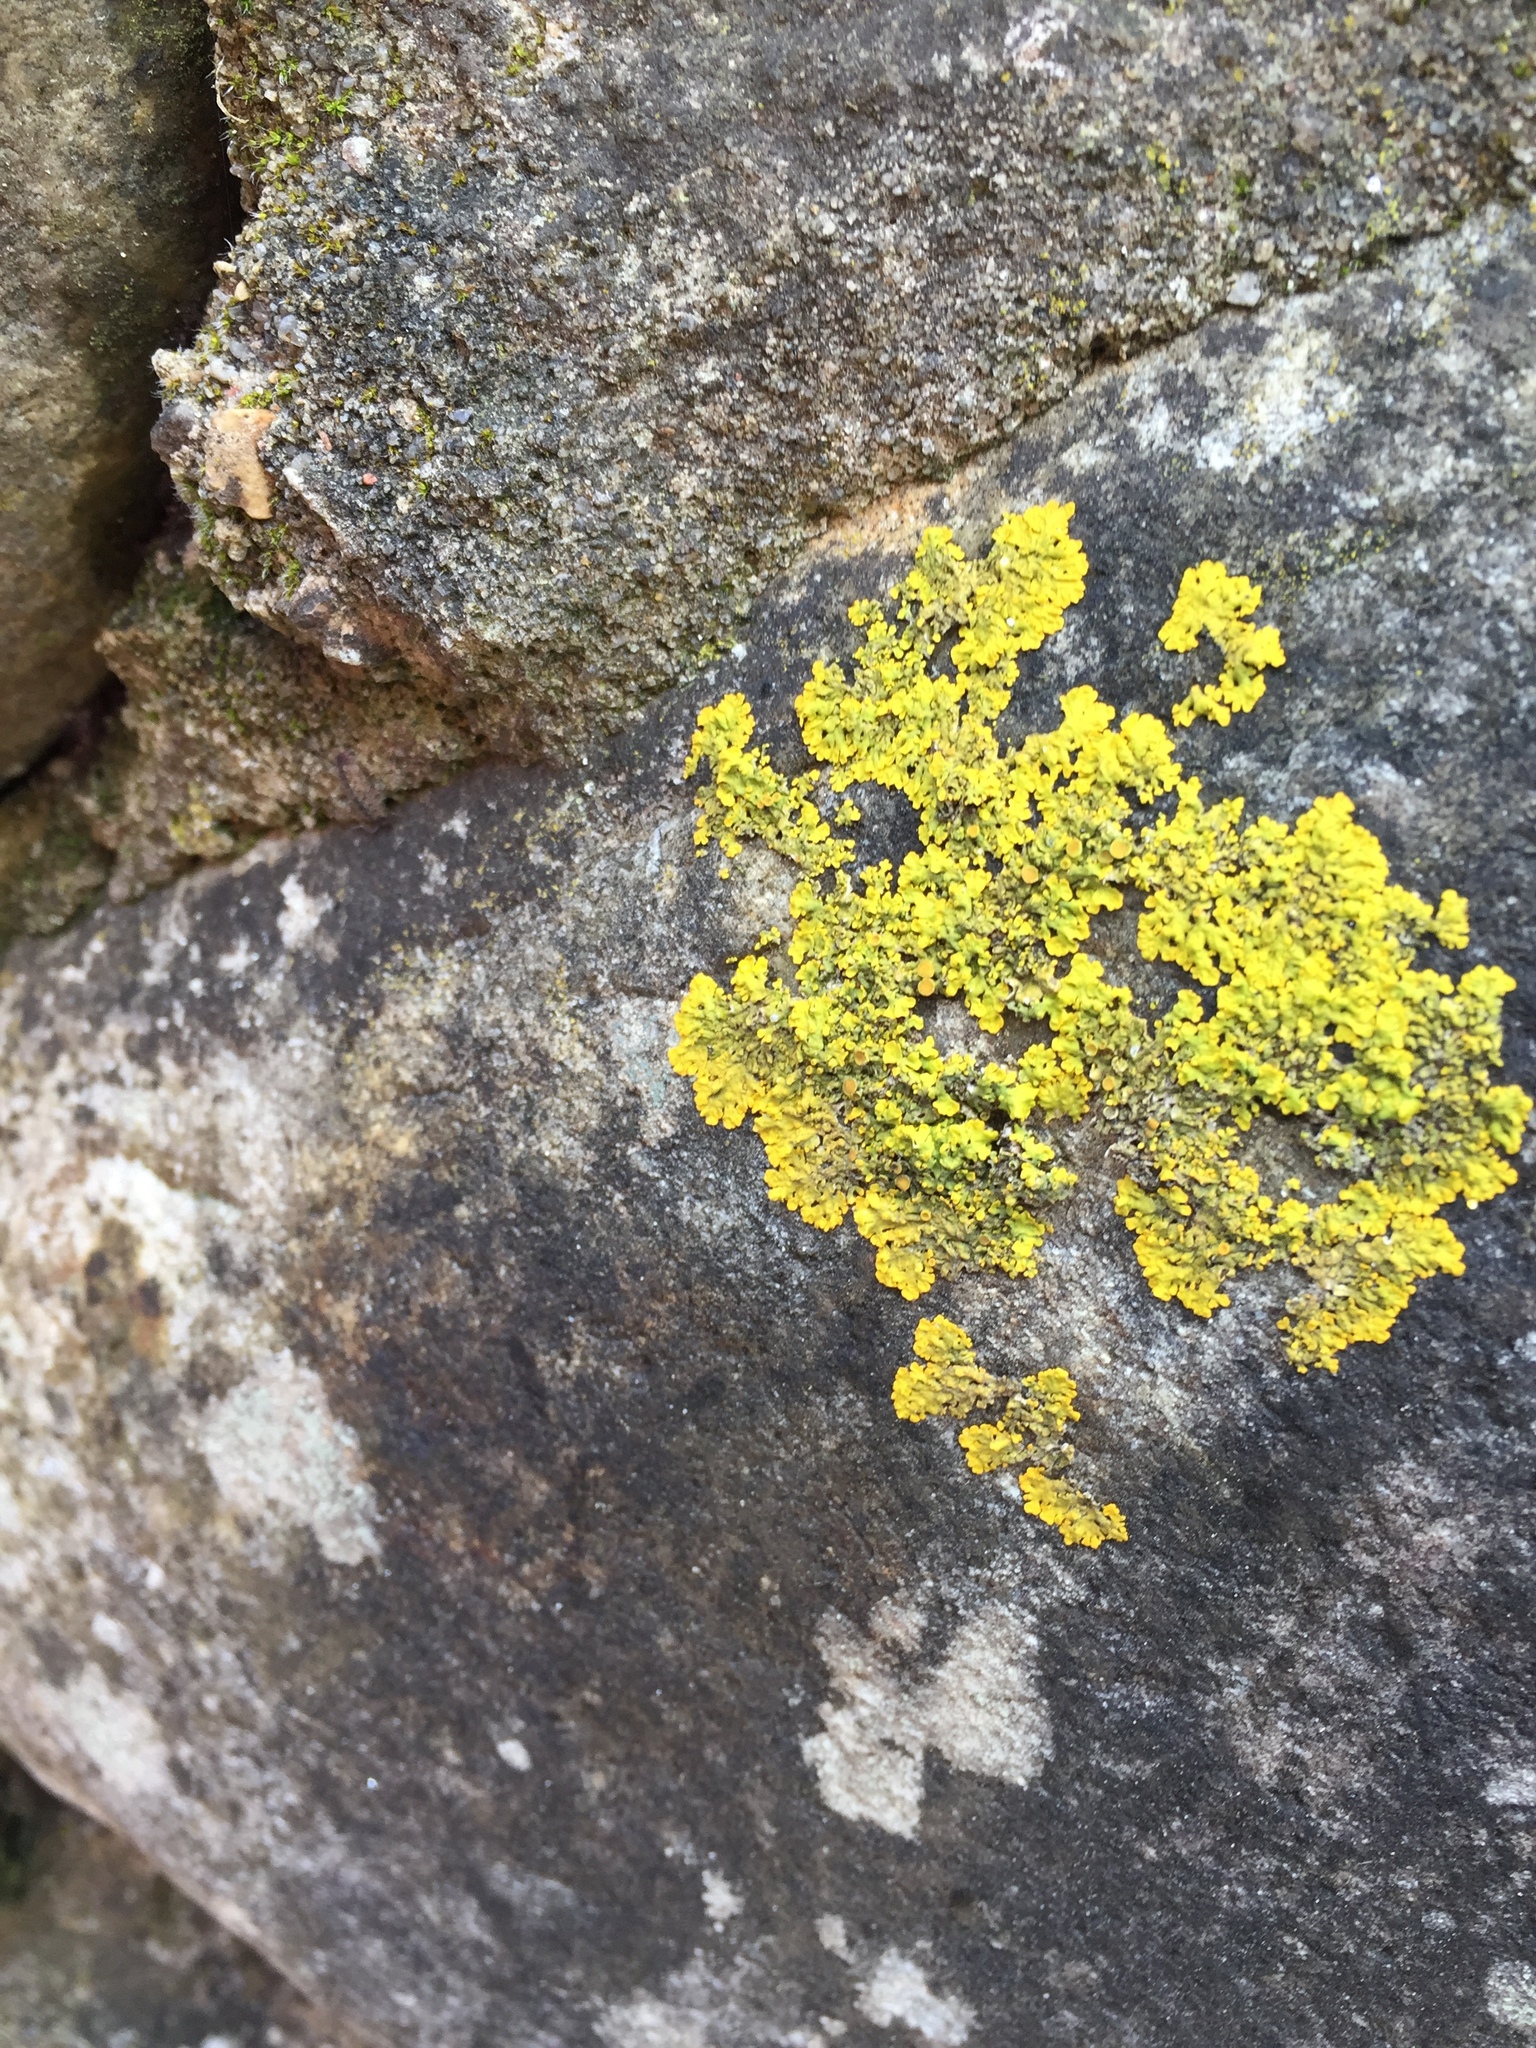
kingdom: Fungi
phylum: Ascomycota
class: Lecanoromycetes
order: Teloschistales
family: Teloschistaceae
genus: Xanthoria
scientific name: Xanthoria parietina
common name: Common orange lichen
